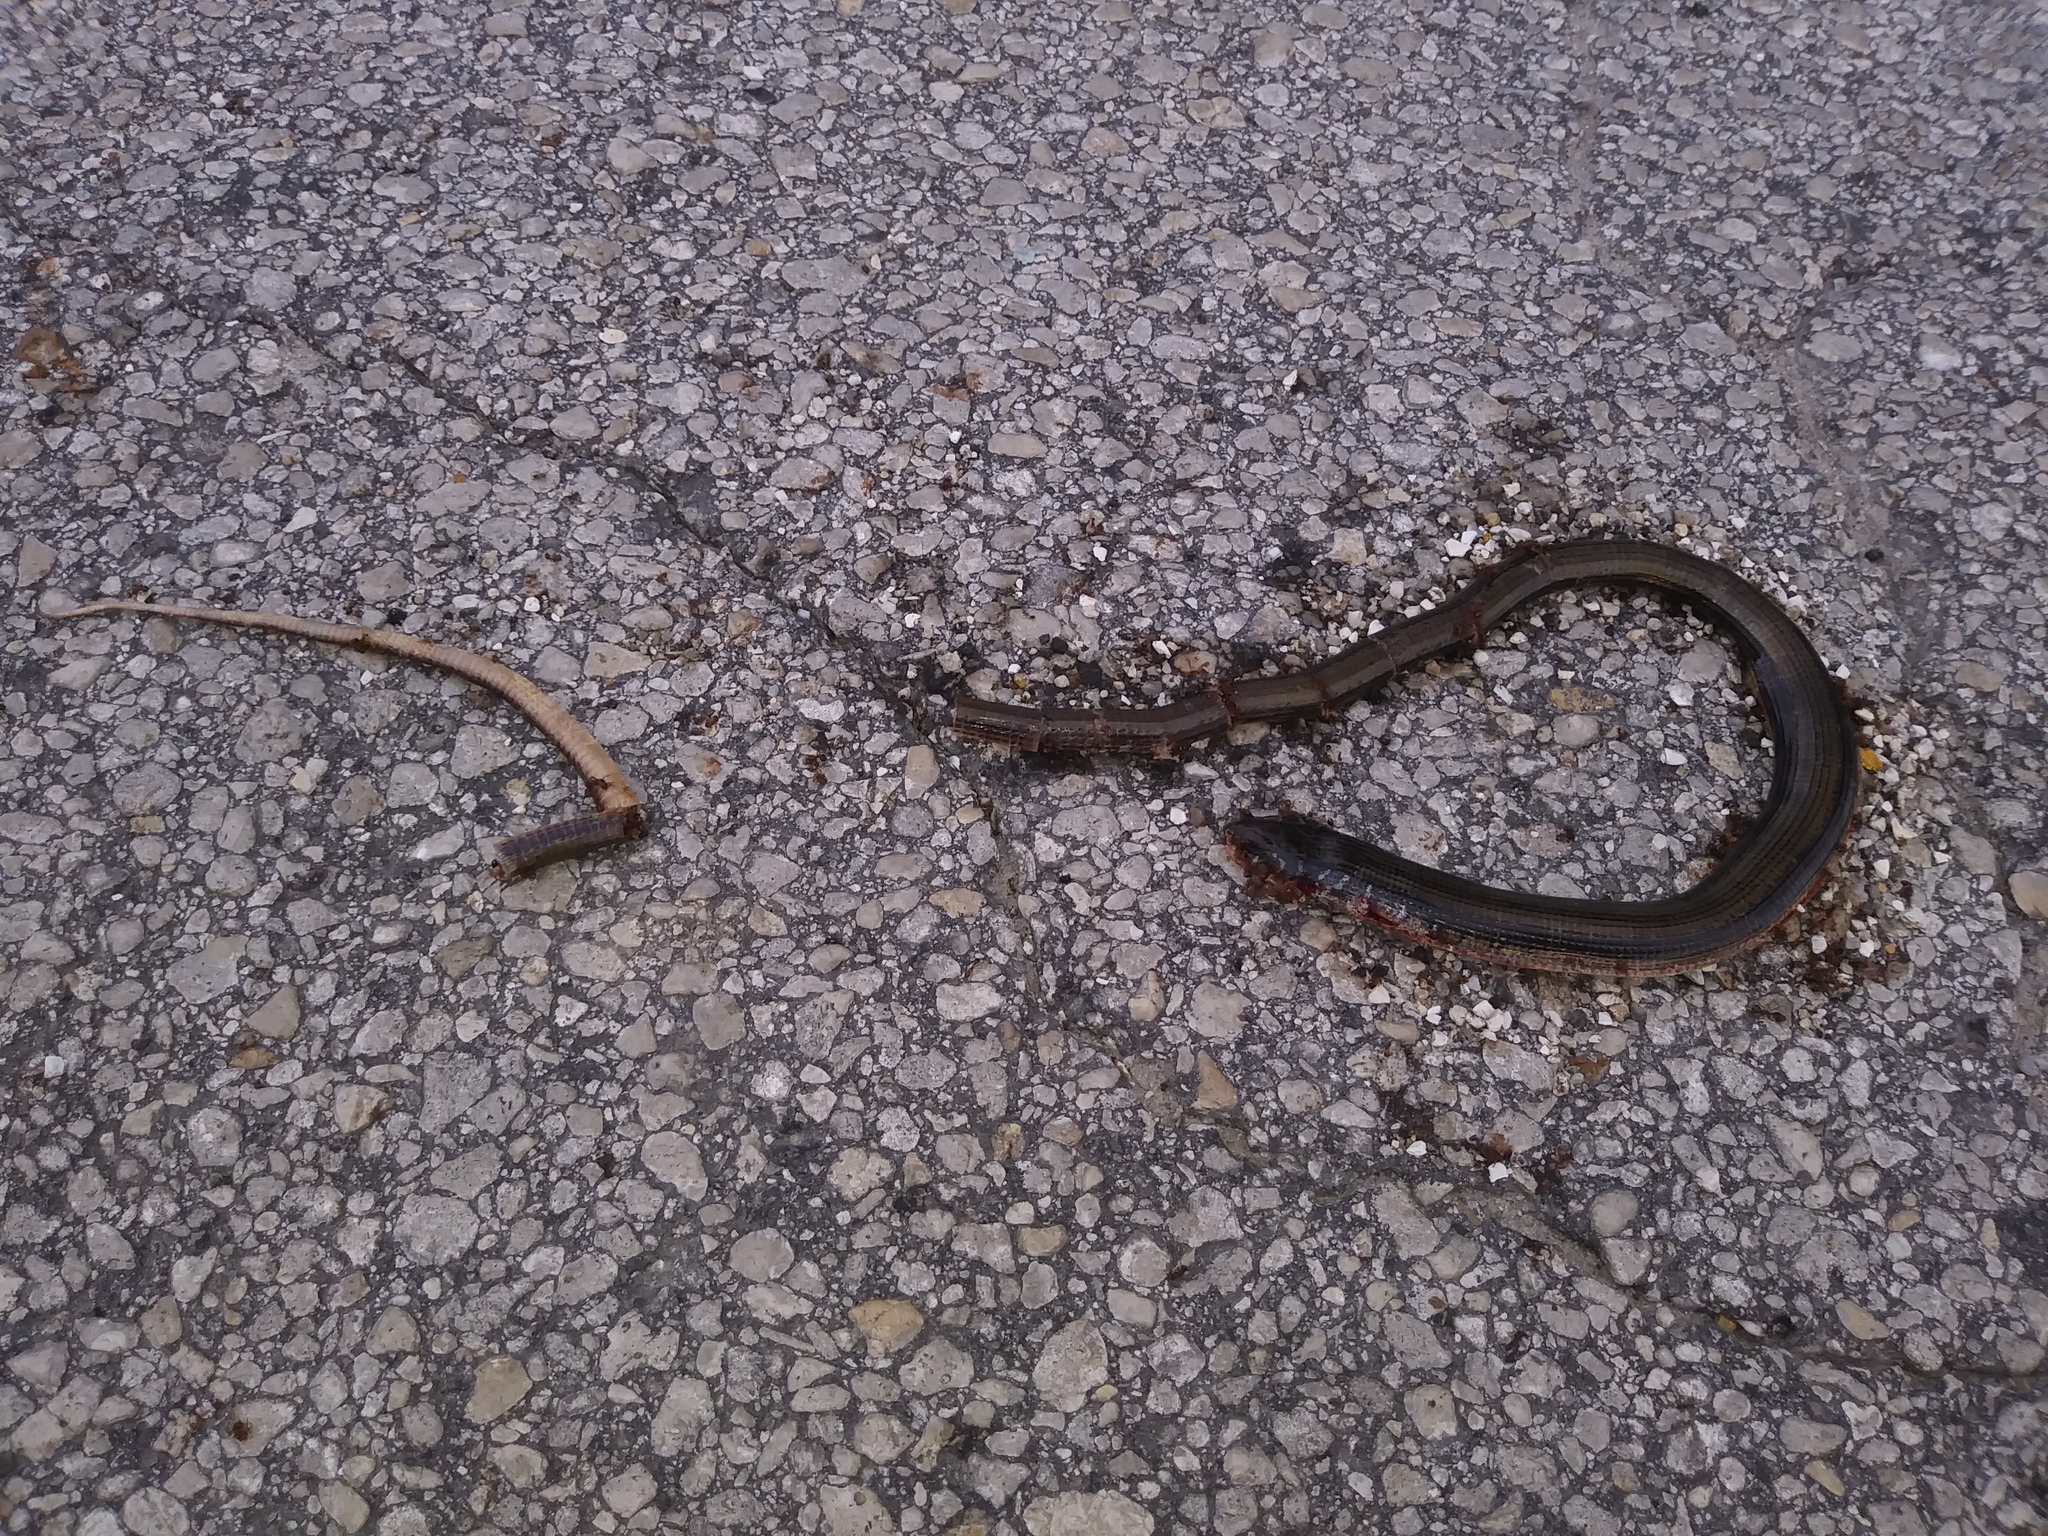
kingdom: Animalia
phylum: Chordata
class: Squamata
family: Anguidae
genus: Ophisaurus
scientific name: Ophisaurus ventralis
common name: Eastern glass lizard
